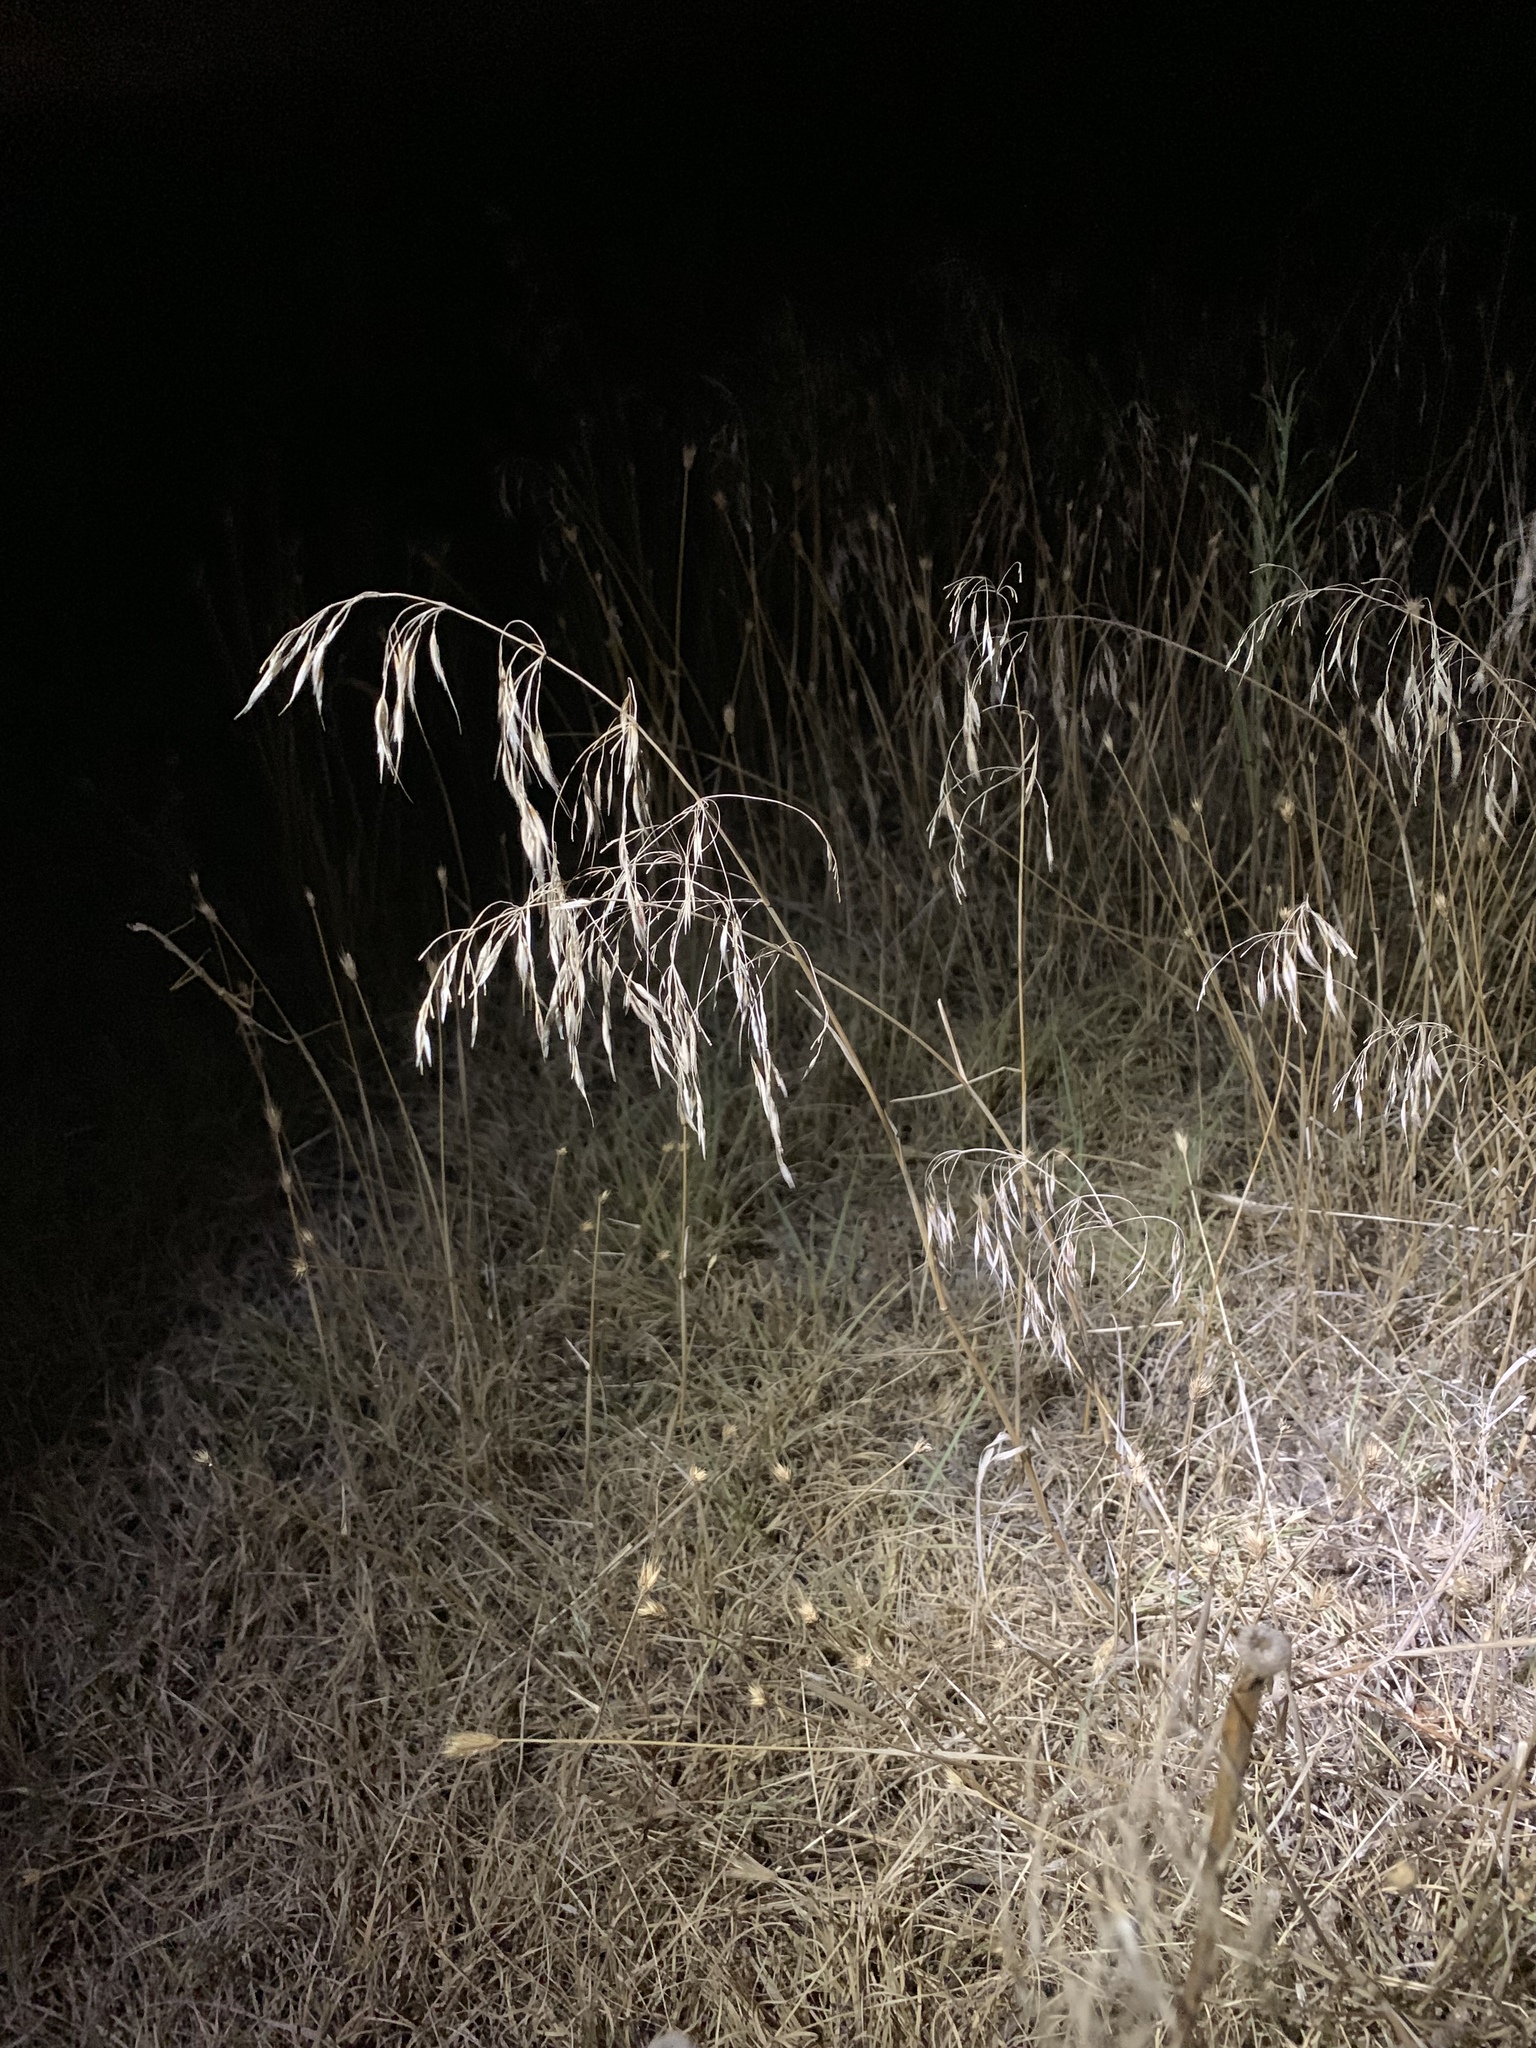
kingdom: Plantae
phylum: Tracheophyta
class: Liliopsida
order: Poales
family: Poaceae
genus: Bromus
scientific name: Bromus inermis
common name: Smooth brome
